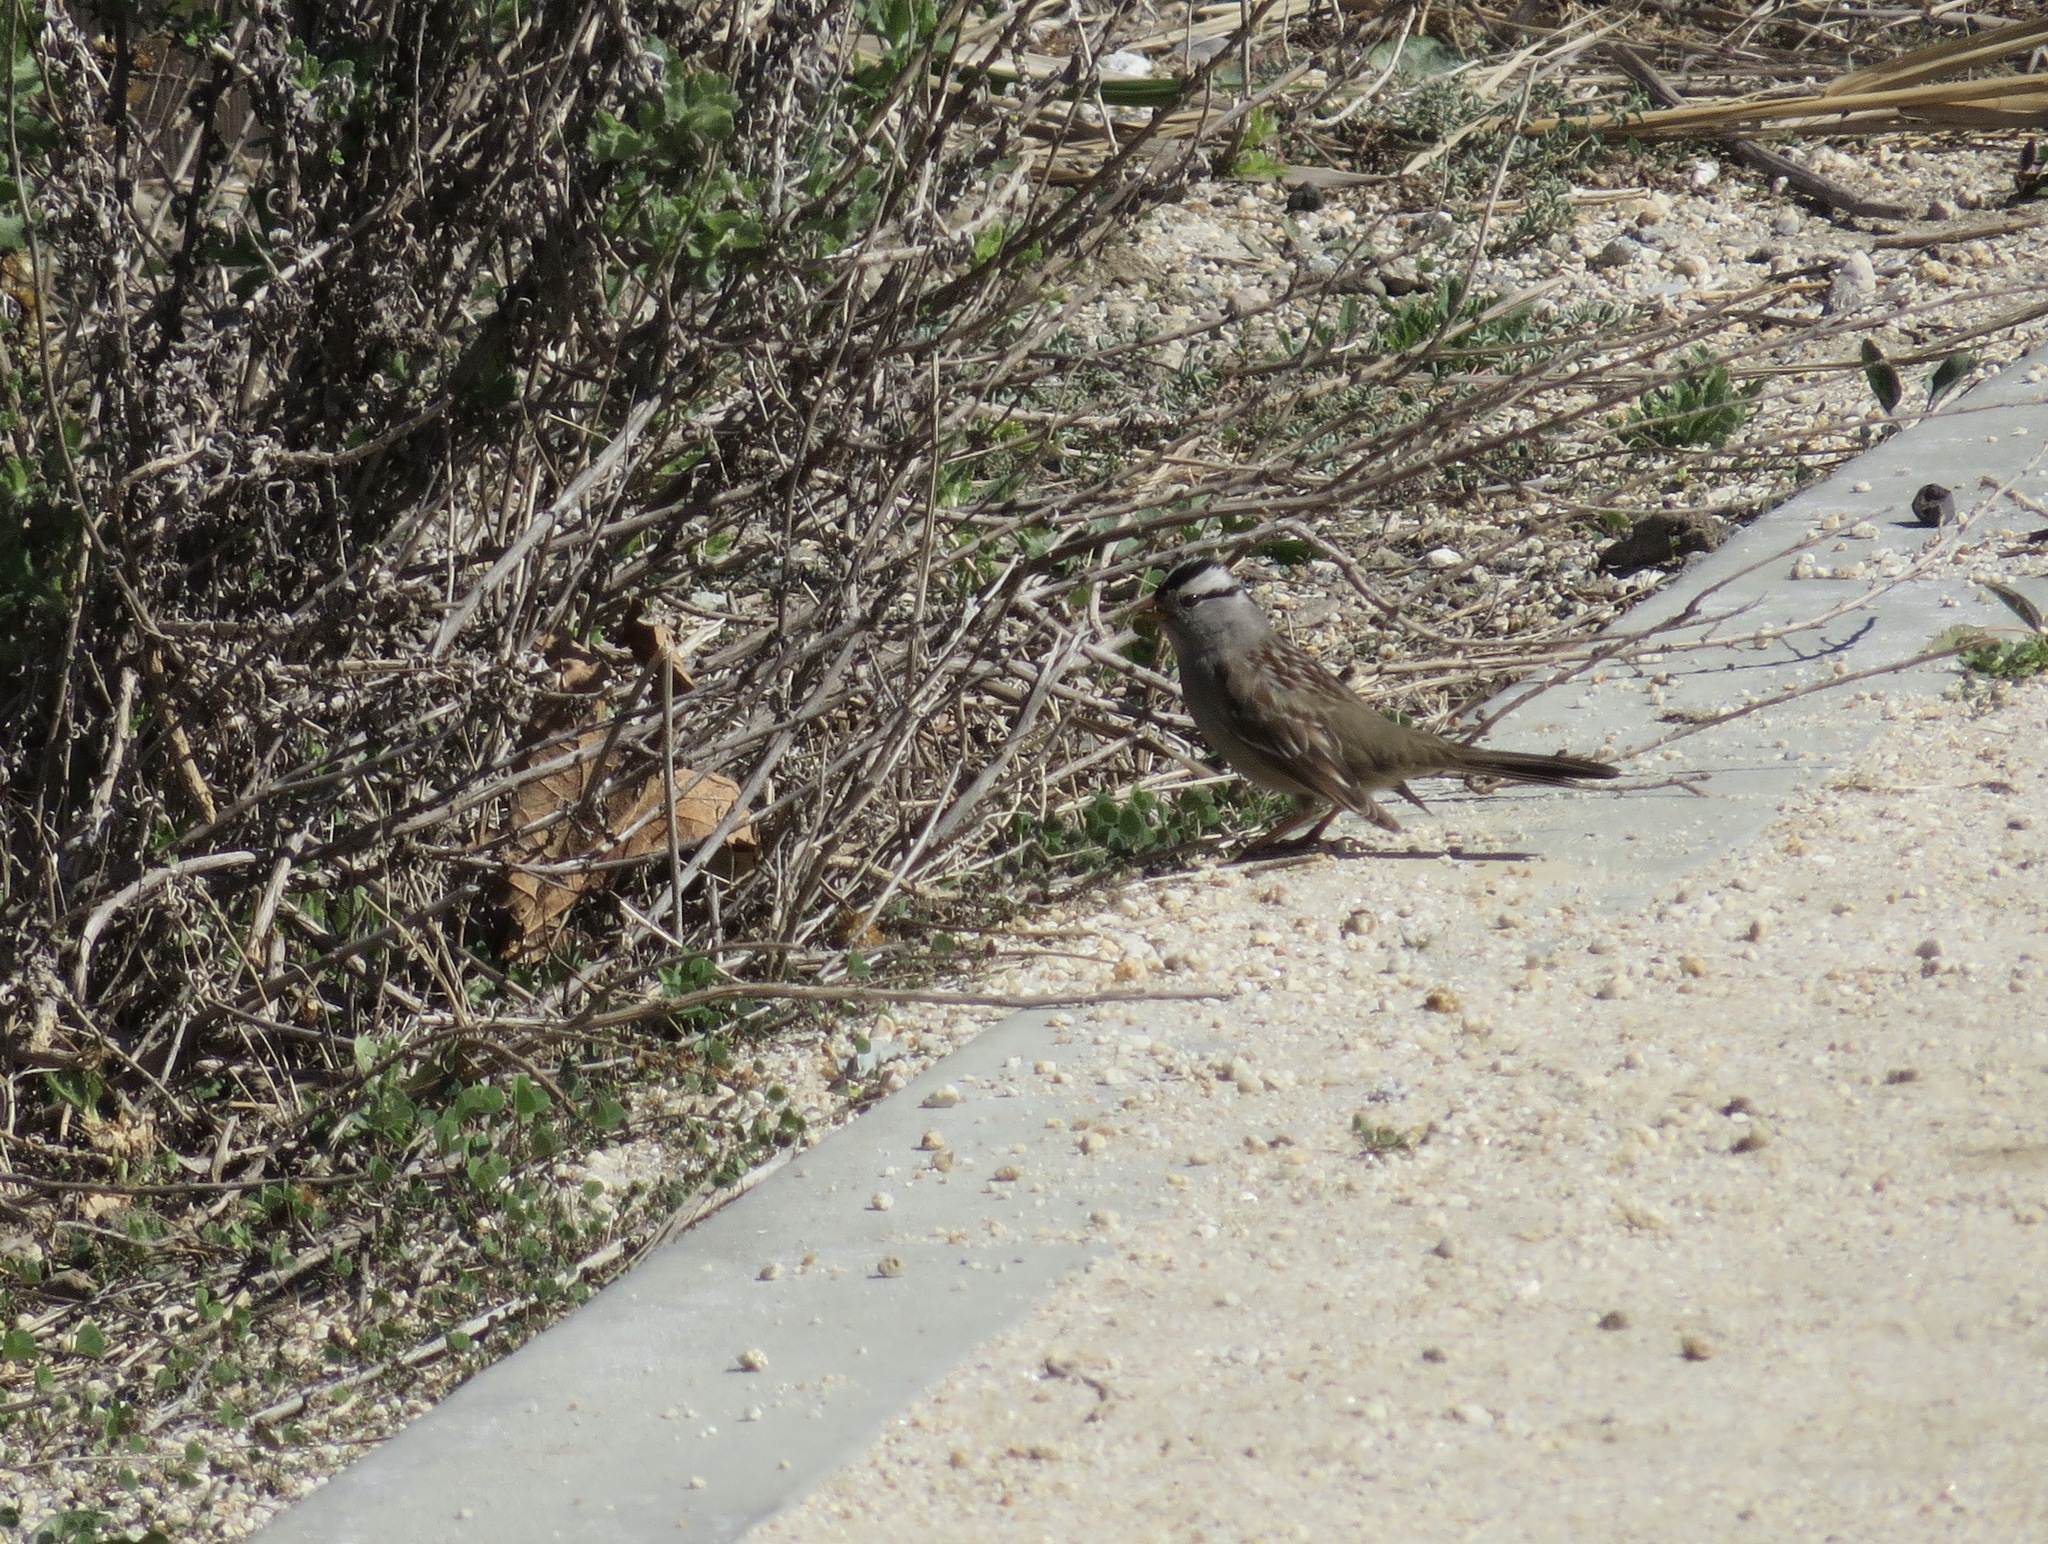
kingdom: Animalia
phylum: Chordata
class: Aves
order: Passeriformes
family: Passerellidae
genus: Zonotrichia
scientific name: Zonotrichia leucophrys
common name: White-crowned sparrow
